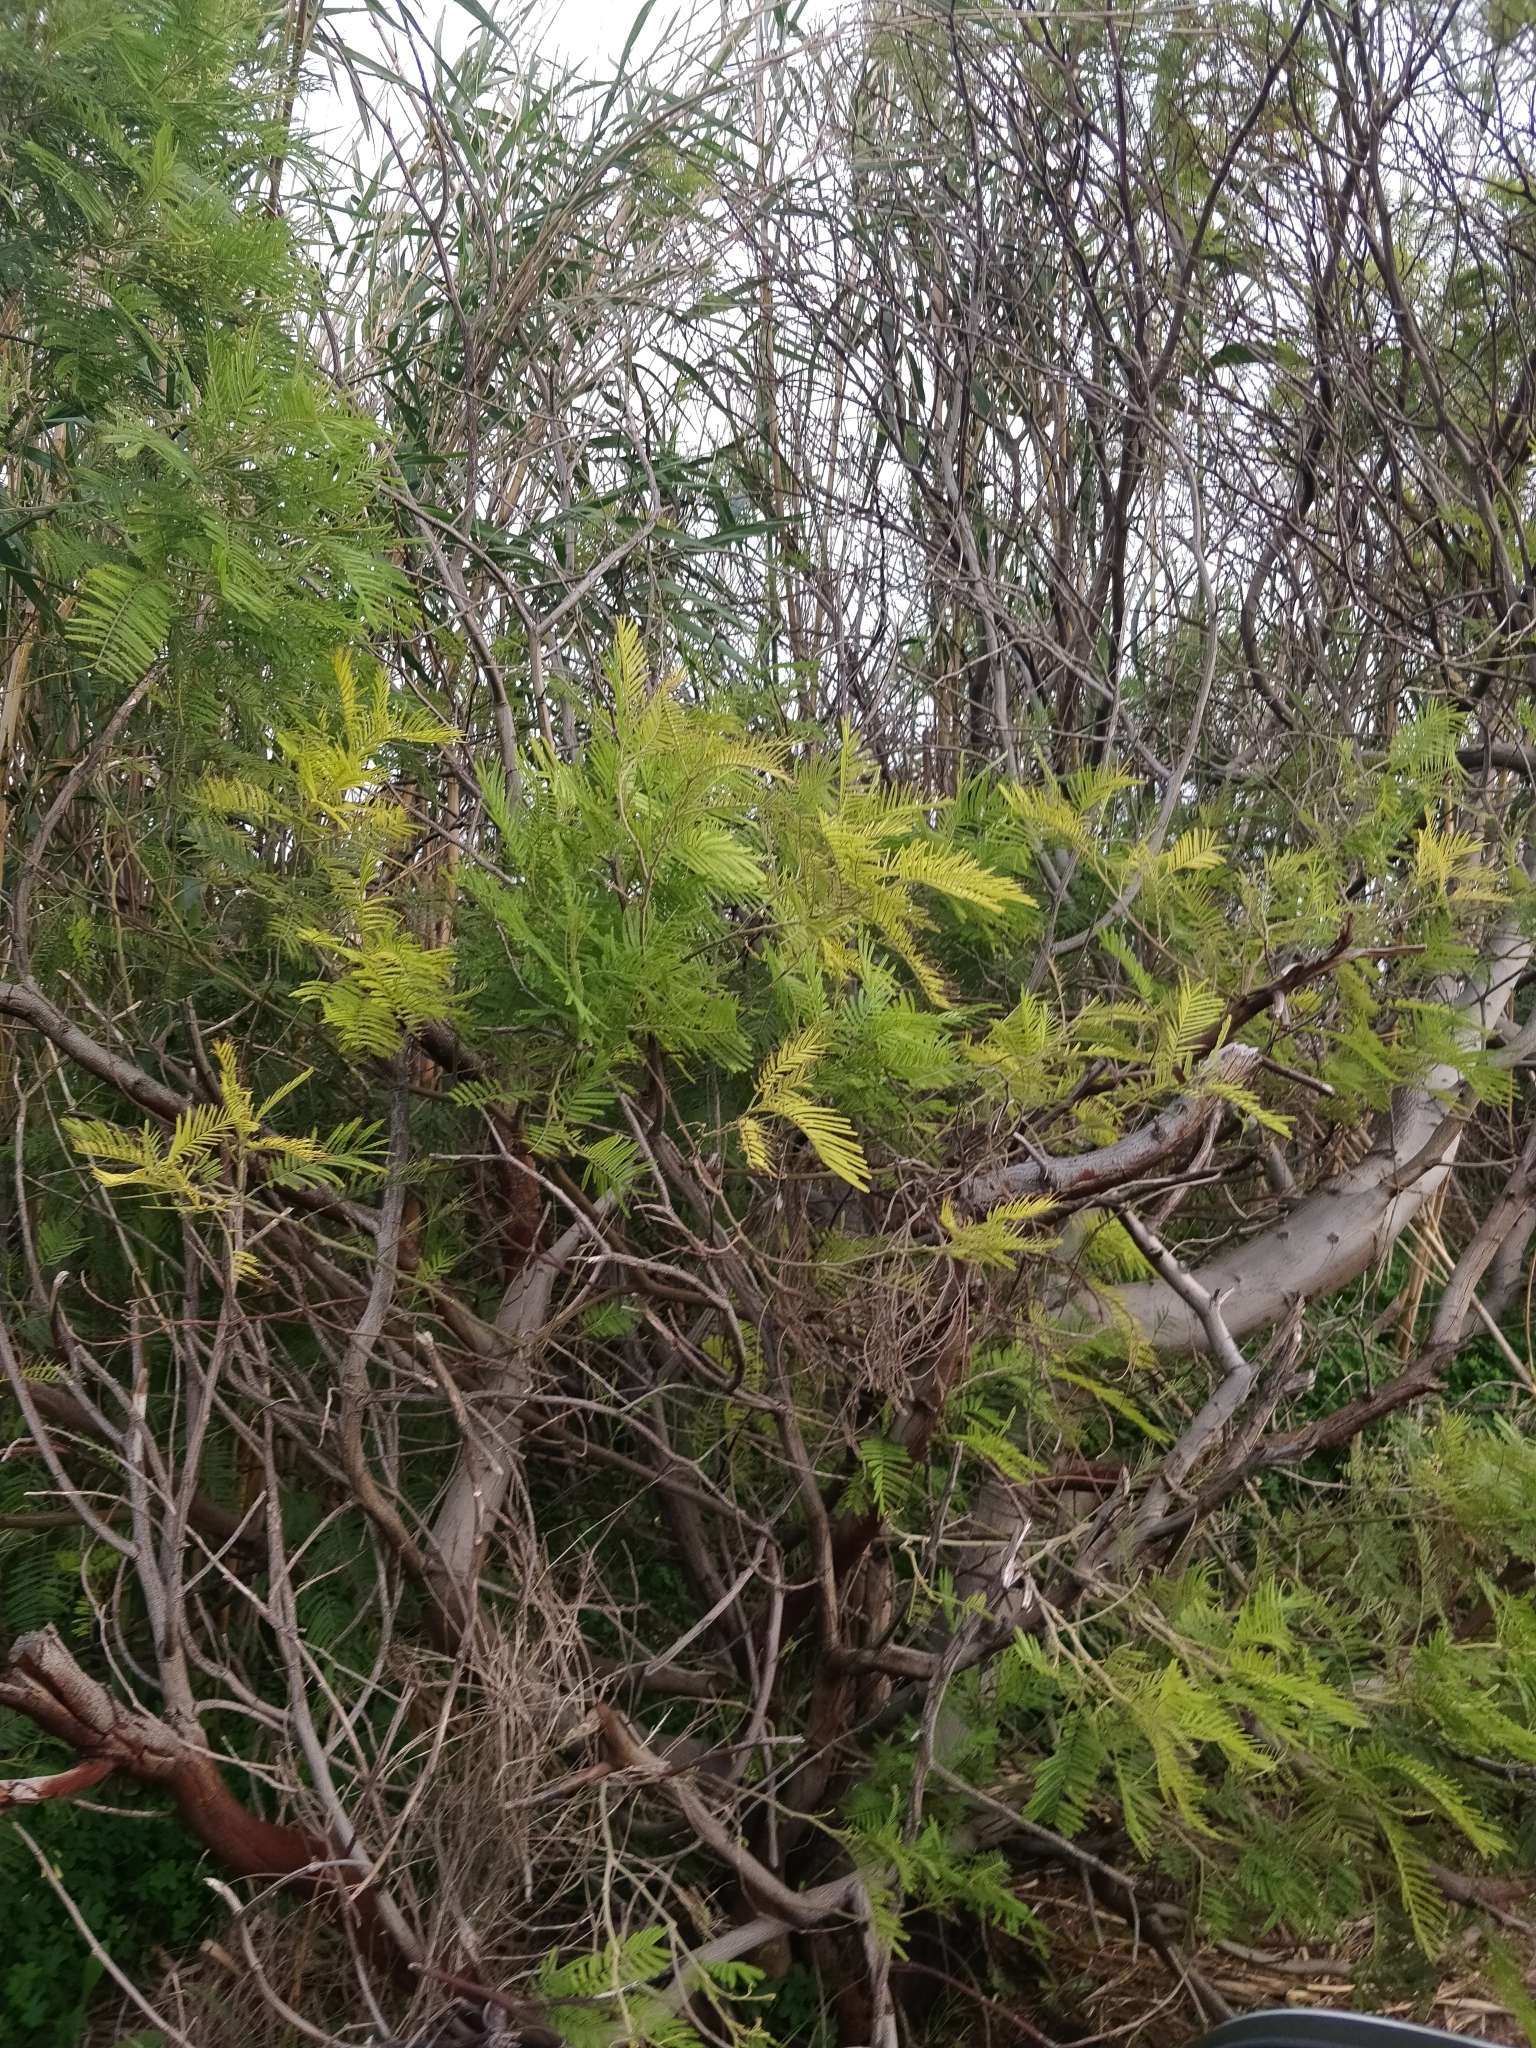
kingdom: Plantae
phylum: Tracheophyta
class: Magnoliopsida
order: Fabales
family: Fabaceae
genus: Acacia
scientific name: Acacia mearnsii
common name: Black wattle
